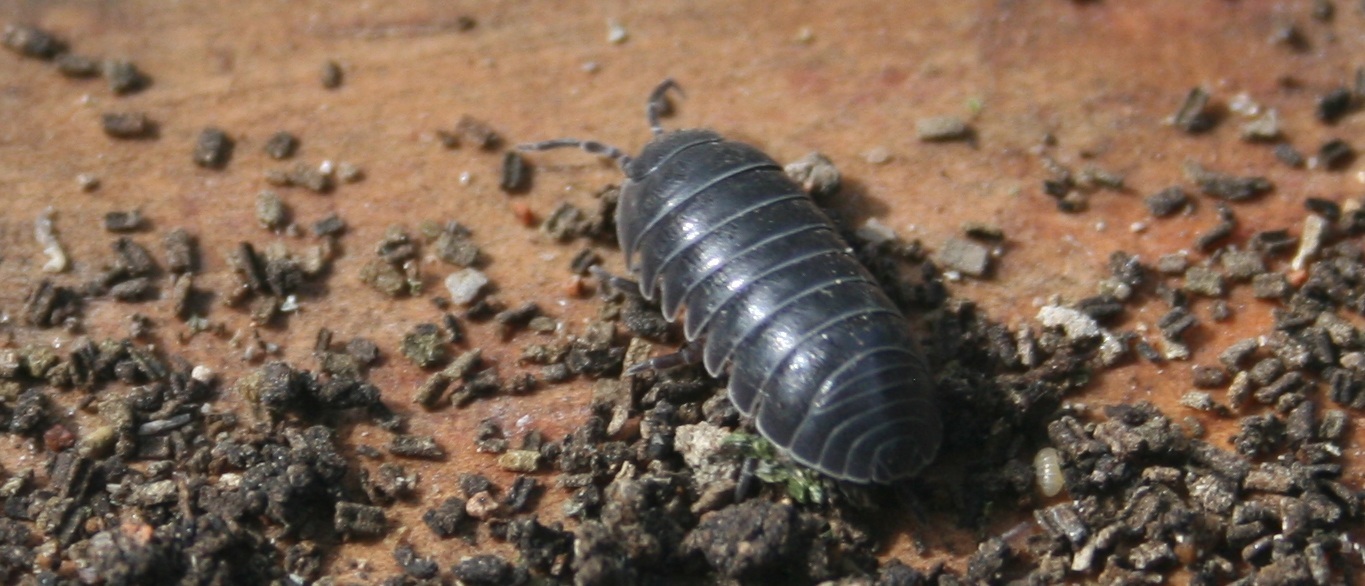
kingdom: Animalia
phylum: Arthropoda
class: Malacostraca
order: Isopoda
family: Armadillidiidae
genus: Armadillidium
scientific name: Armadillidium vulgare
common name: Common pill woodlouse
